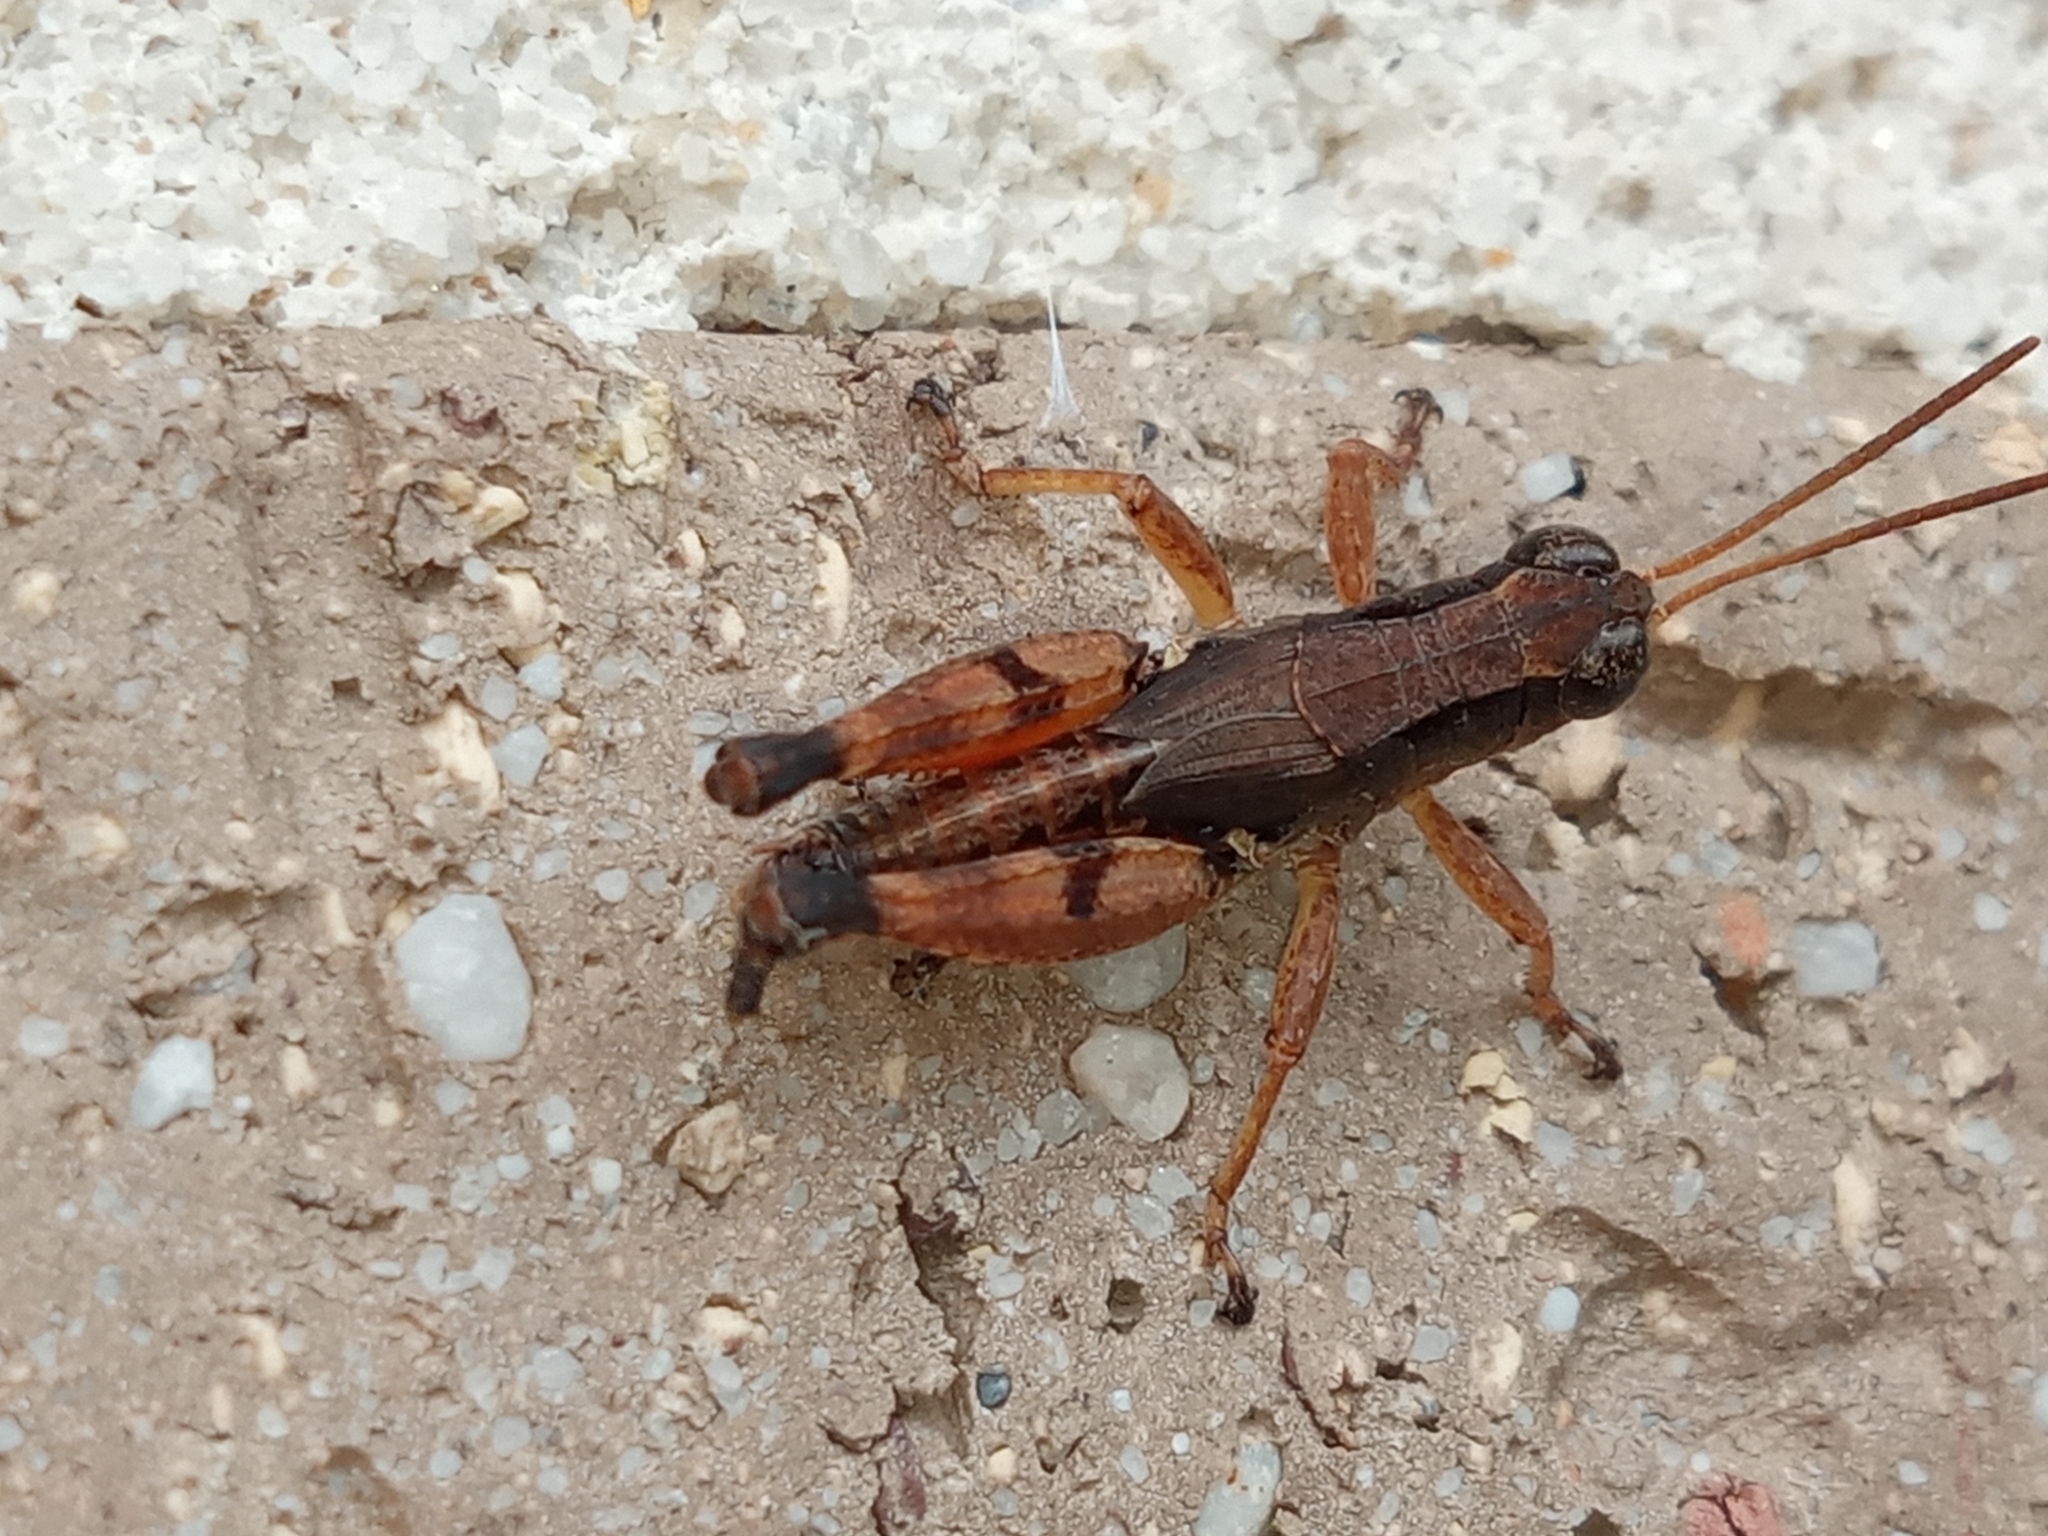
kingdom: Animalia
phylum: Arthropoda
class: Insecta
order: Orthoptera
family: Acrididae
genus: Phaulacridium
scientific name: Phaulacridium vittatum
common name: Wingless grasshopper
